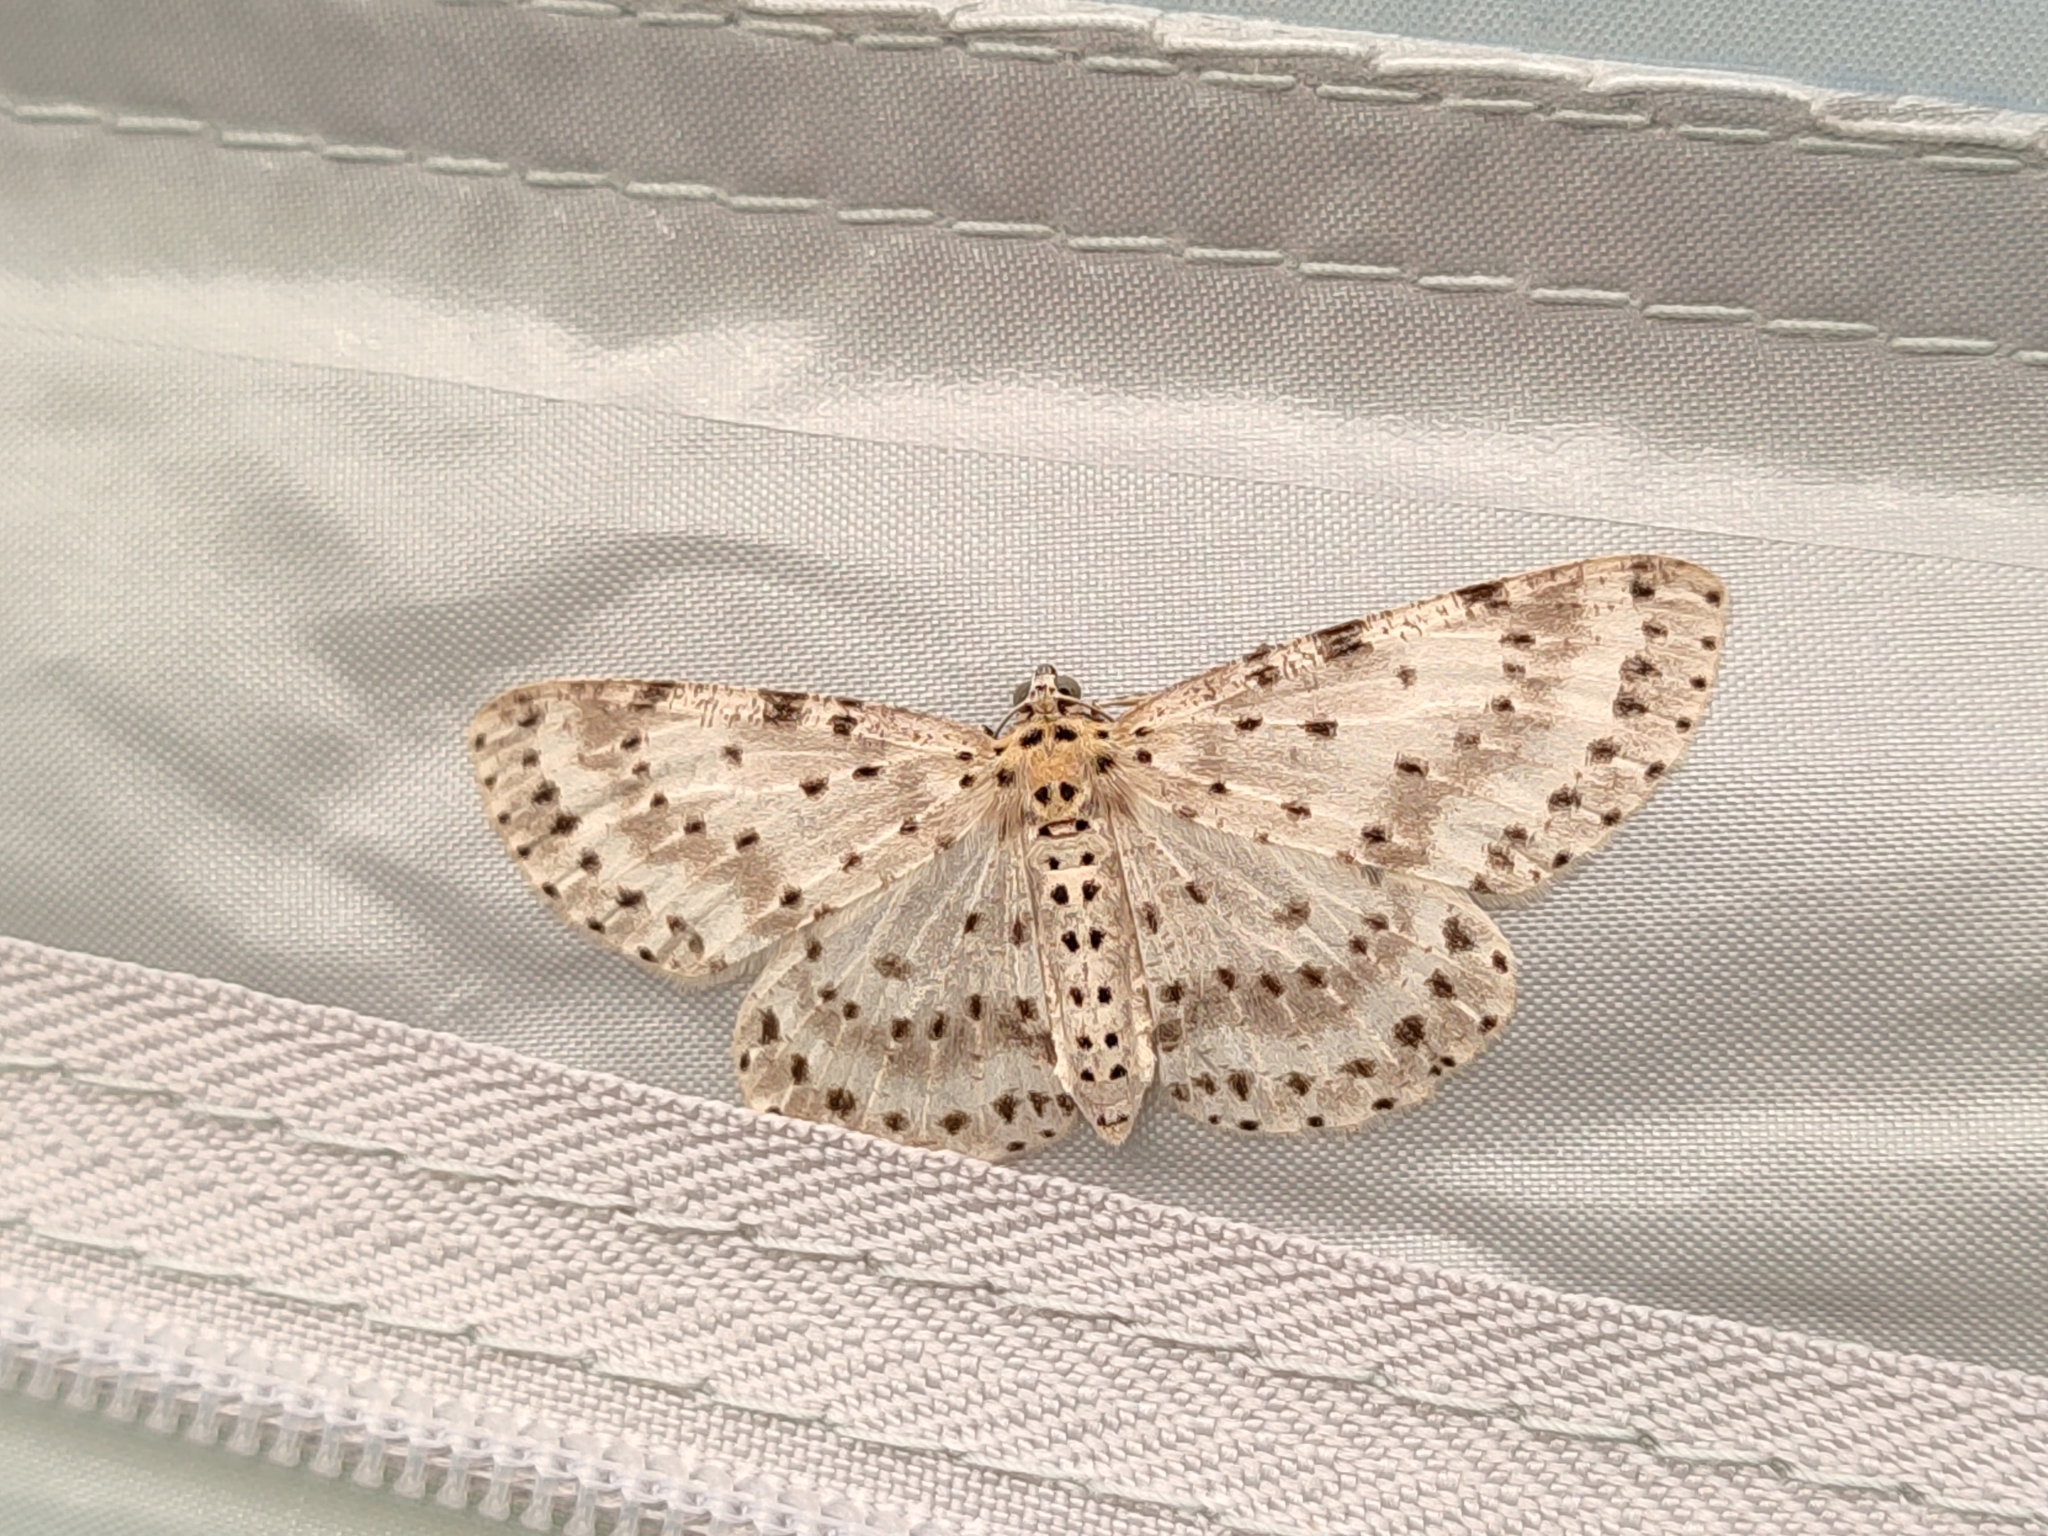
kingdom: Animalia
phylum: Arthropoda
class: Insecta
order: Lepidoptera
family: Geometridae
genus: Percnia
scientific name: Percnia suffusa
